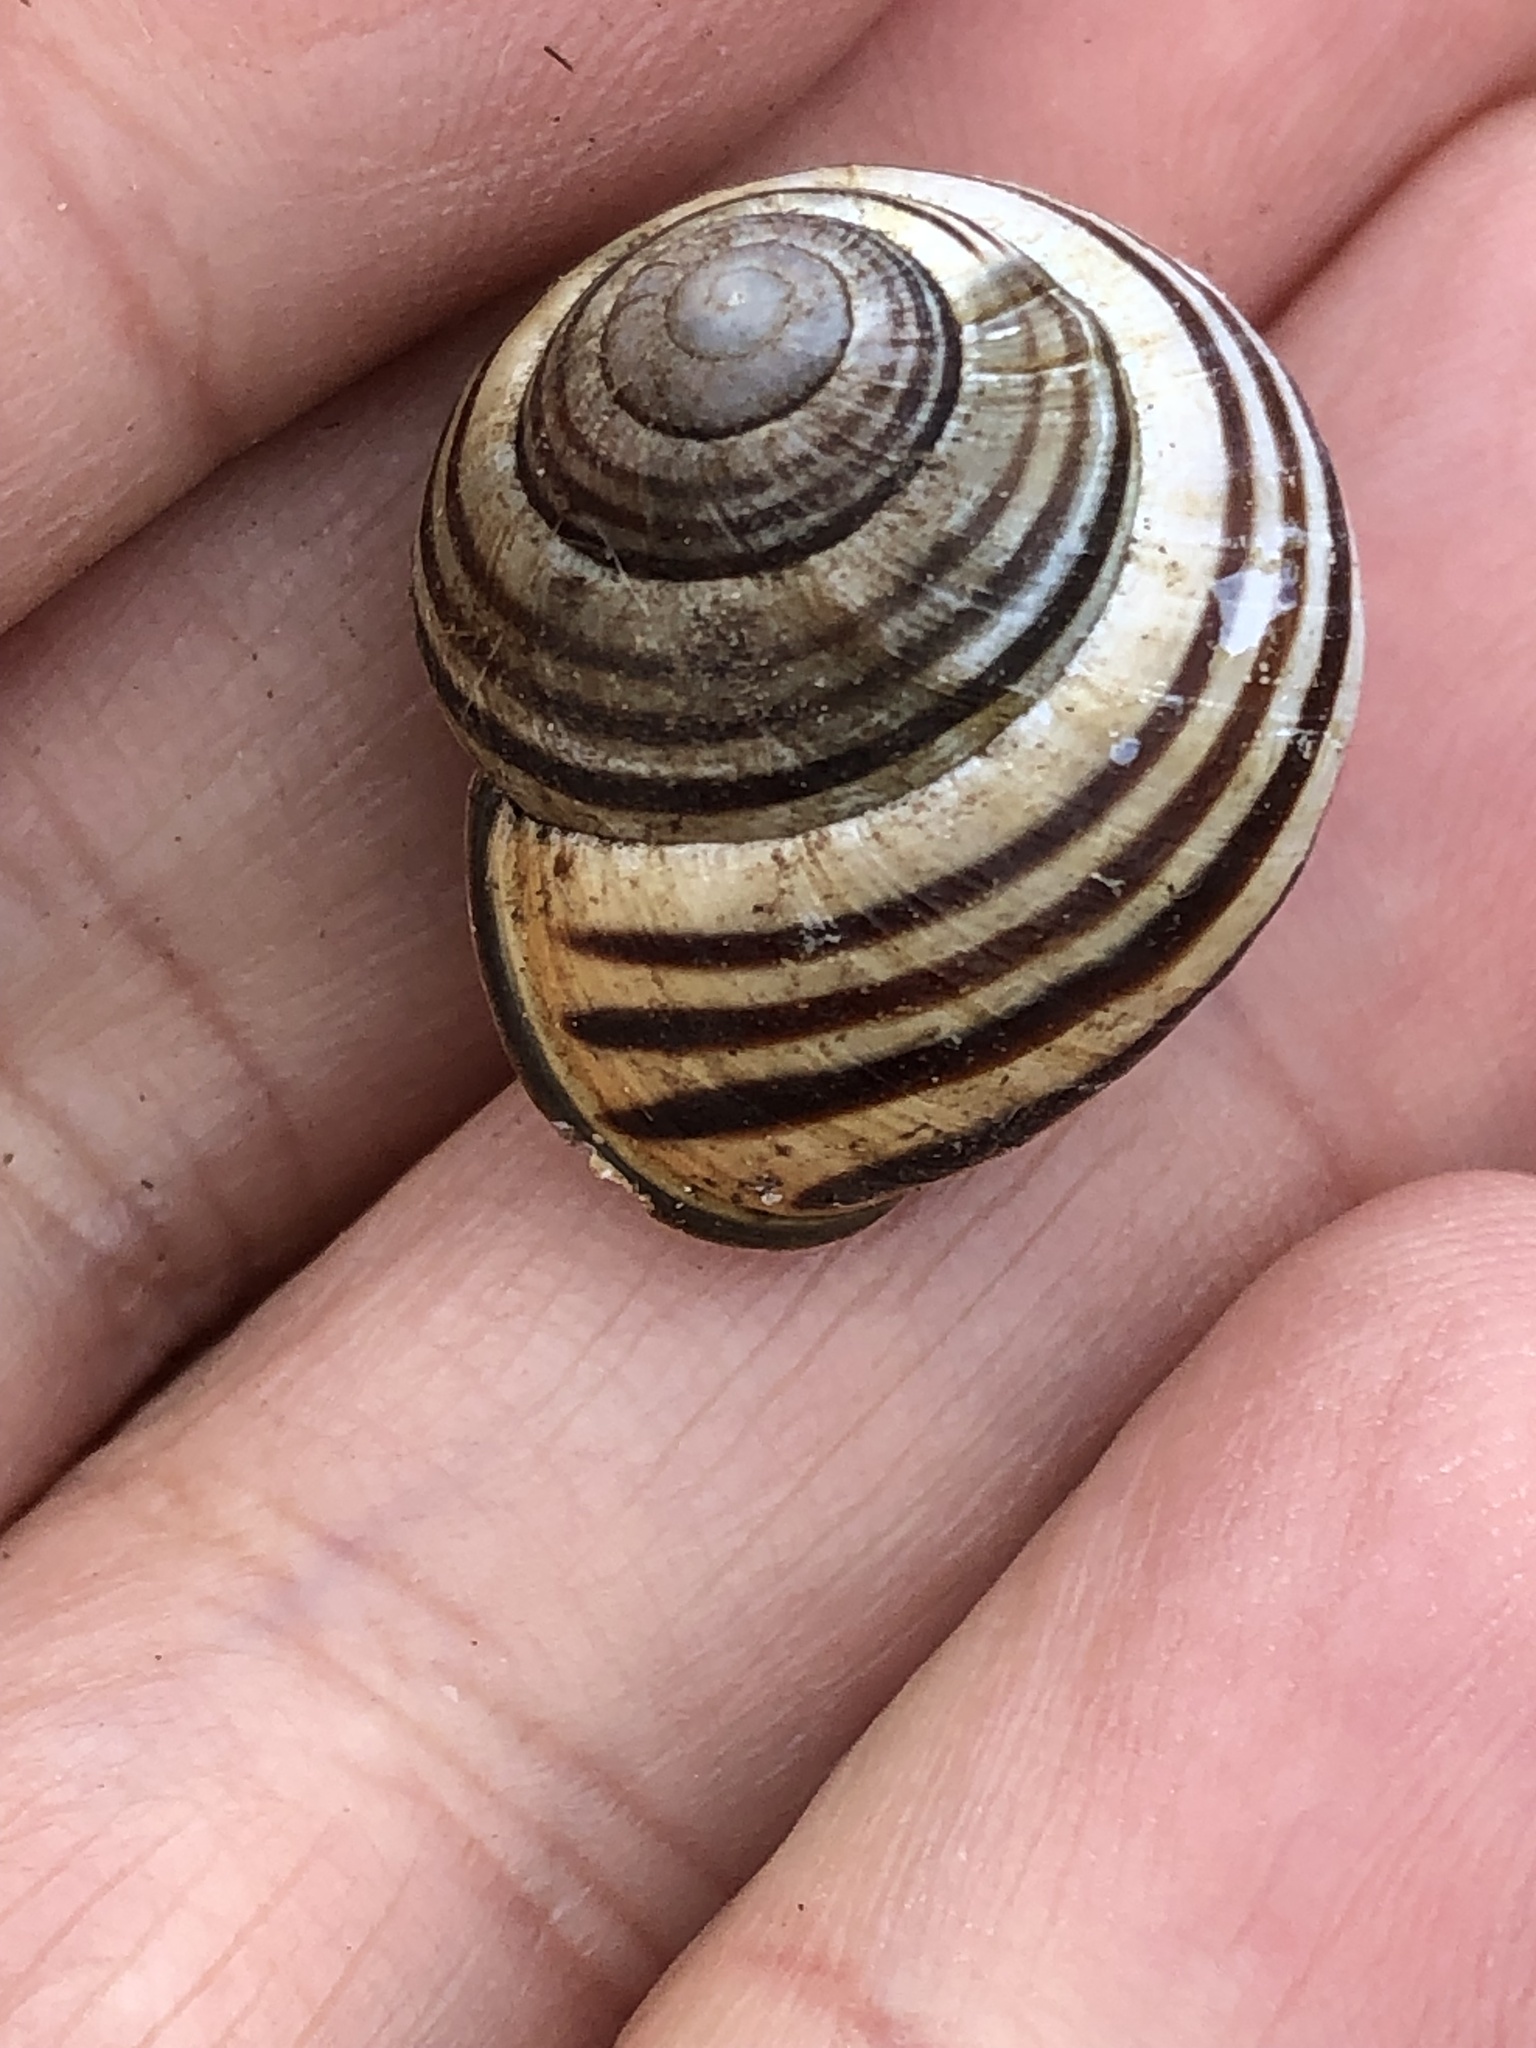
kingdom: Animalia
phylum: Mollusca
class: Gastropoda
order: Stylommatophora
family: Helicidae
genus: Cepaea
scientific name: Cepaea nemoralis
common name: Grovesnail
